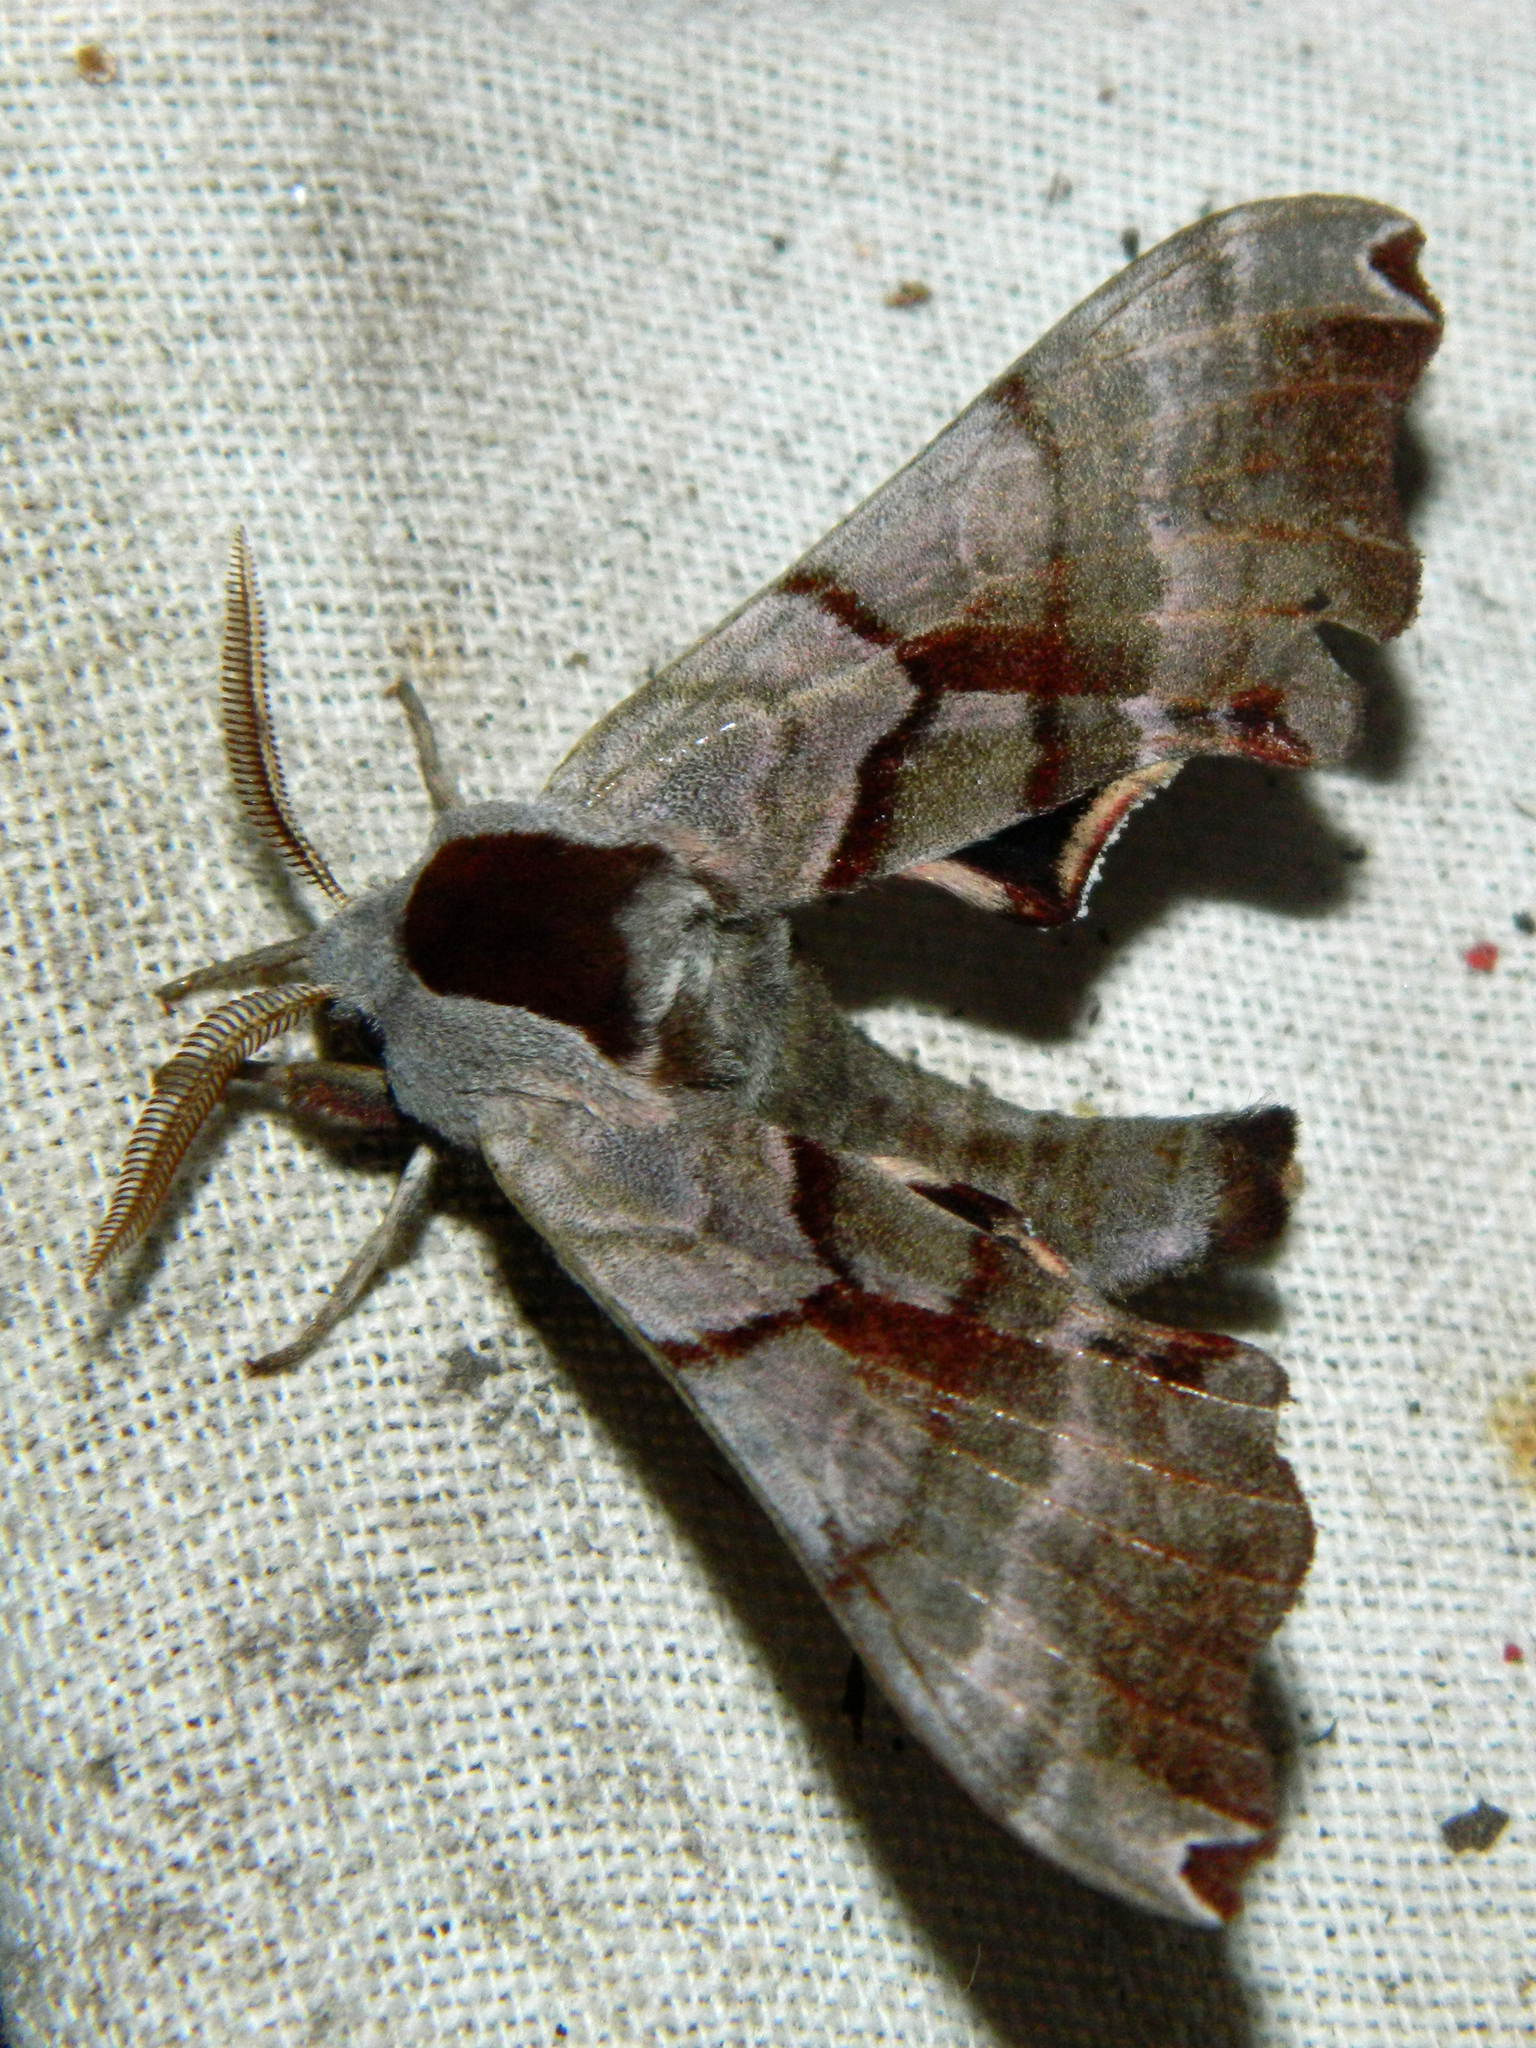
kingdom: Animalia
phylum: Arthropoda
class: Insecta
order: Lepidoptera
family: Sphingidae
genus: Smerinthus
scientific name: Smerinthus jamaicensis
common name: Twin spotted sphinx
